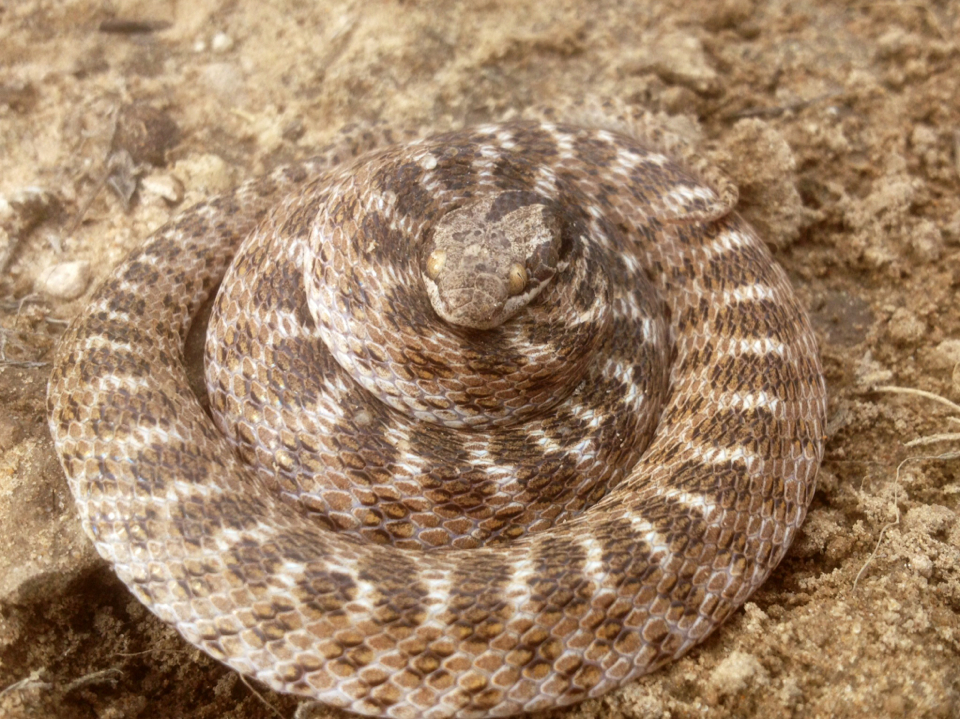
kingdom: Animalia
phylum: Chordata
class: Squamata
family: Colubridae
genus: Hypsiglena
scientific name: Hypsiglena jani
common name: Chihuahuan nightsnake
